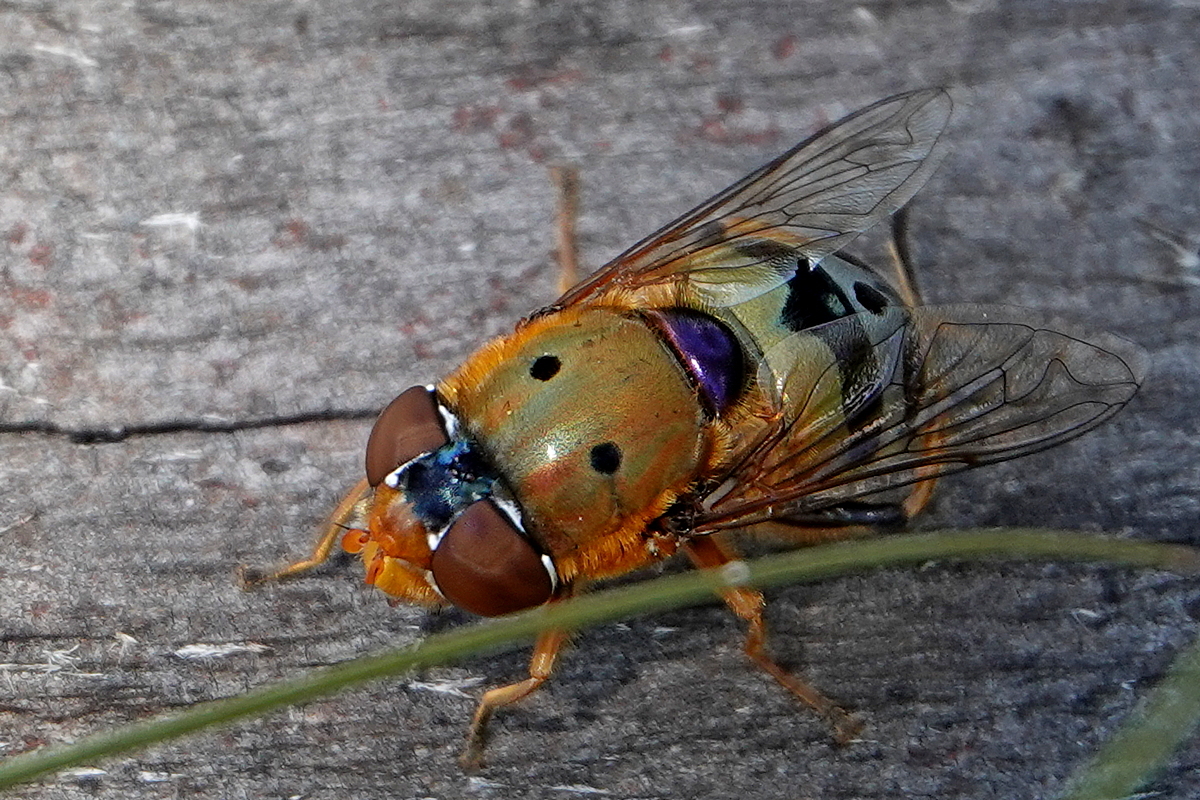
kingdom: Animalia
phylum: Arthropoda
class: Insecta
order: Diptera
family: Syrphidae
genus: Austalis
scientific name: Austalis pulchella
